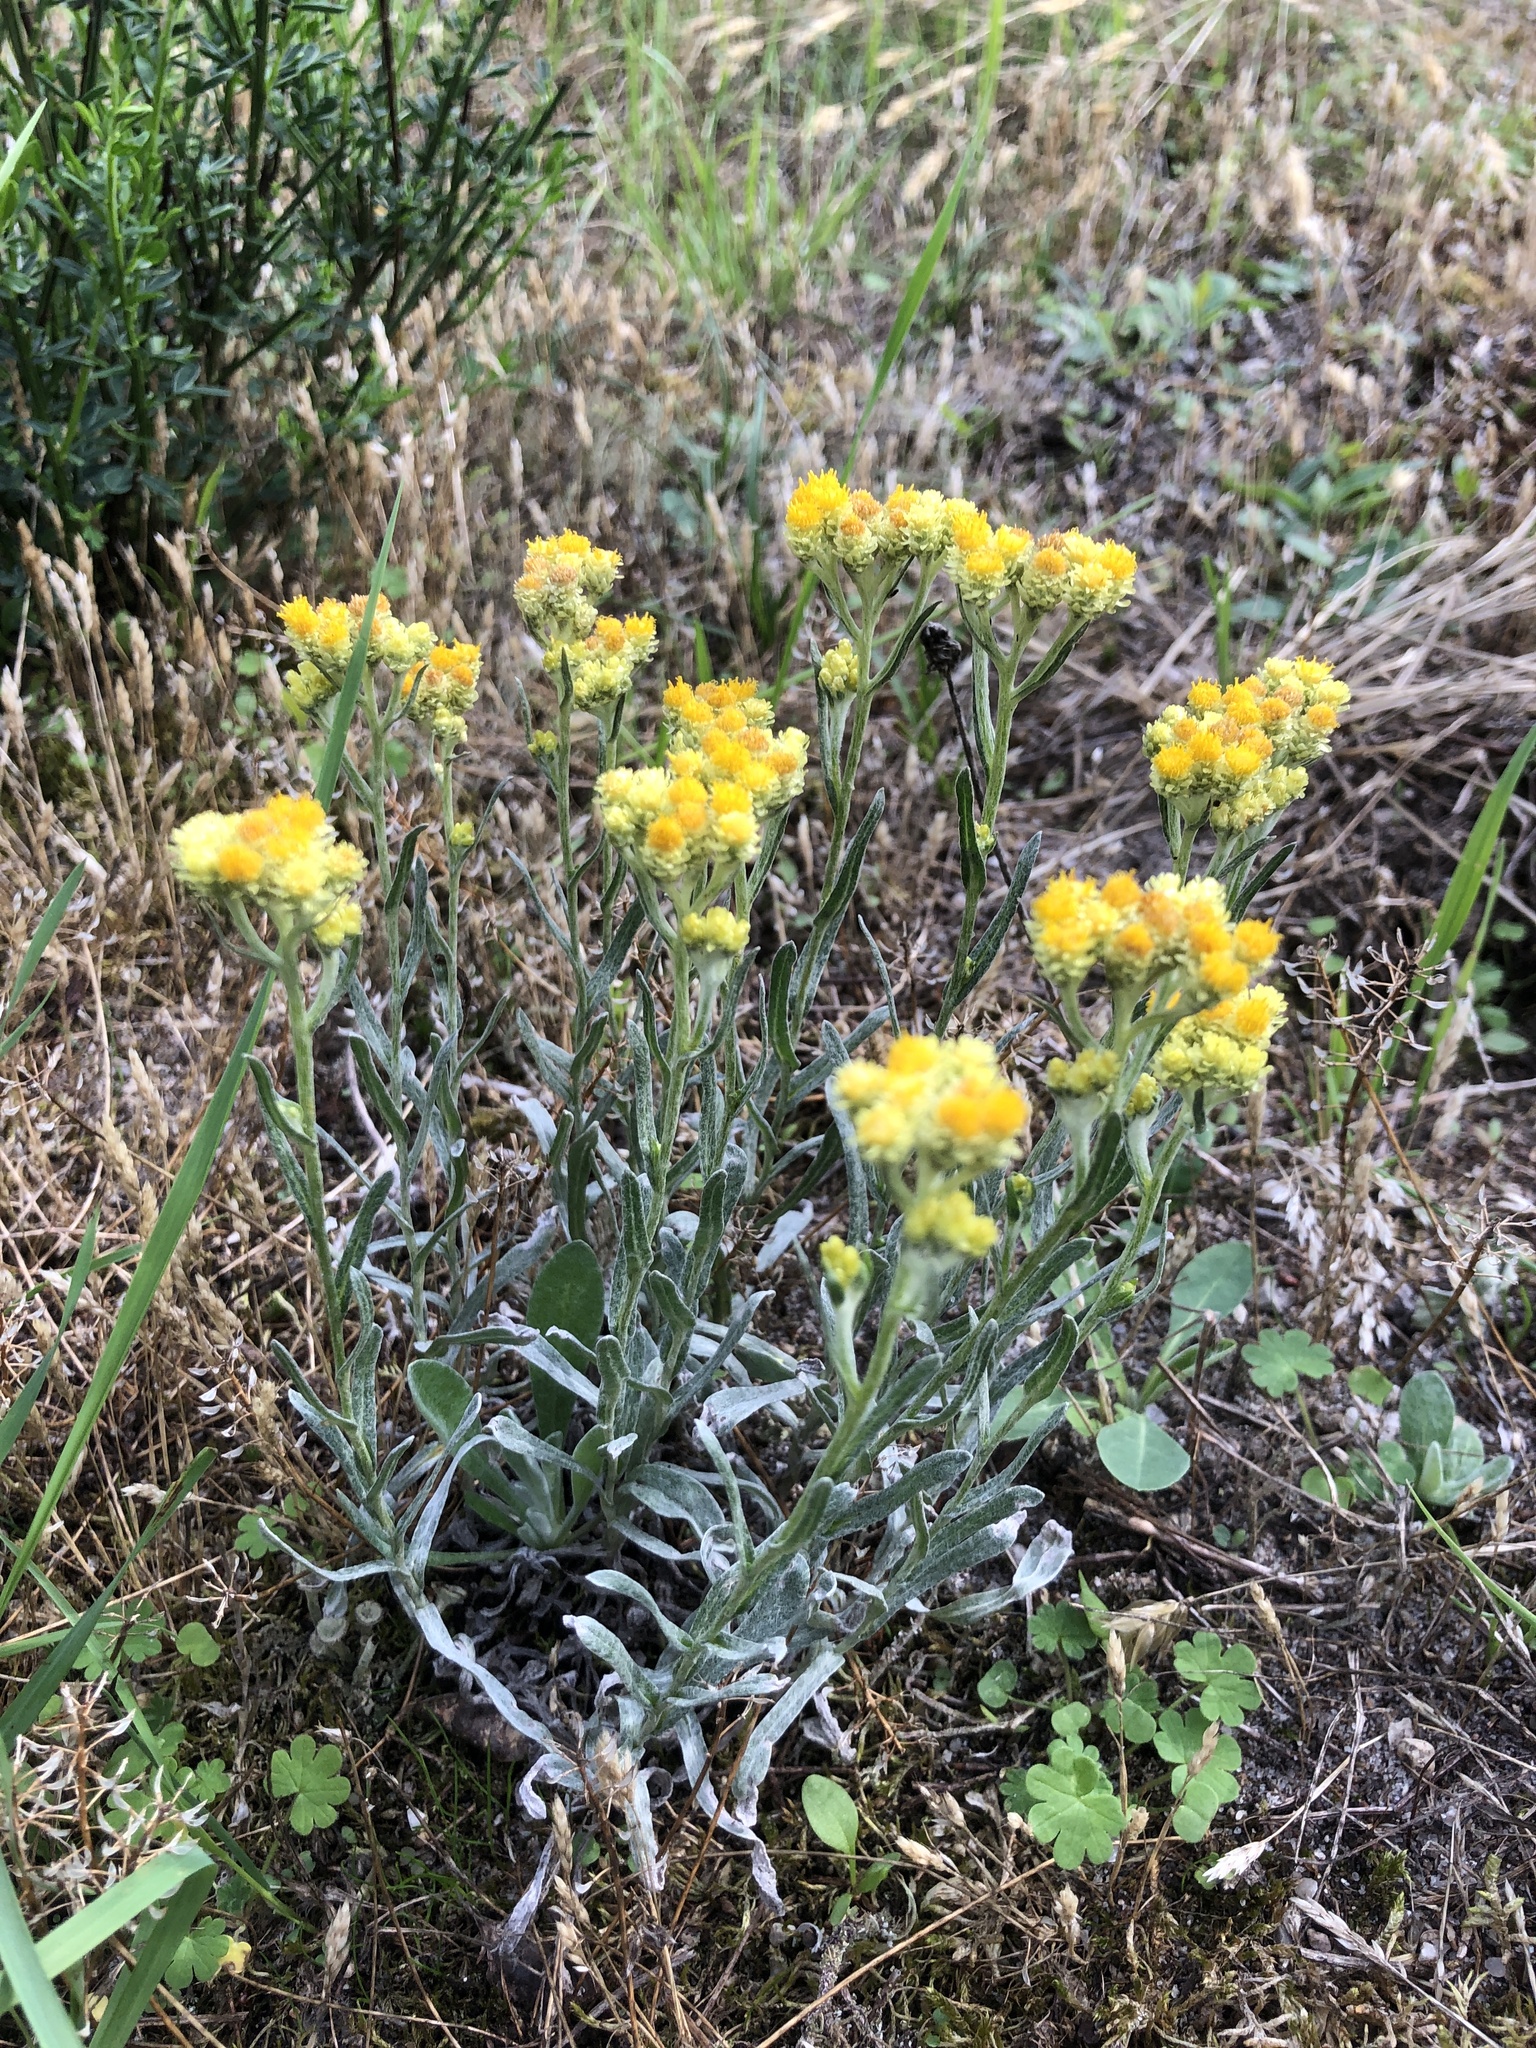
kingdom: Plantae
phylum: Tracheophyta
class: Magnoliopsida
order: Asterales
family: Asteraceae
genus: Helichrysum
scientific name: Helichrysum arenarium
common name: Strawflower
